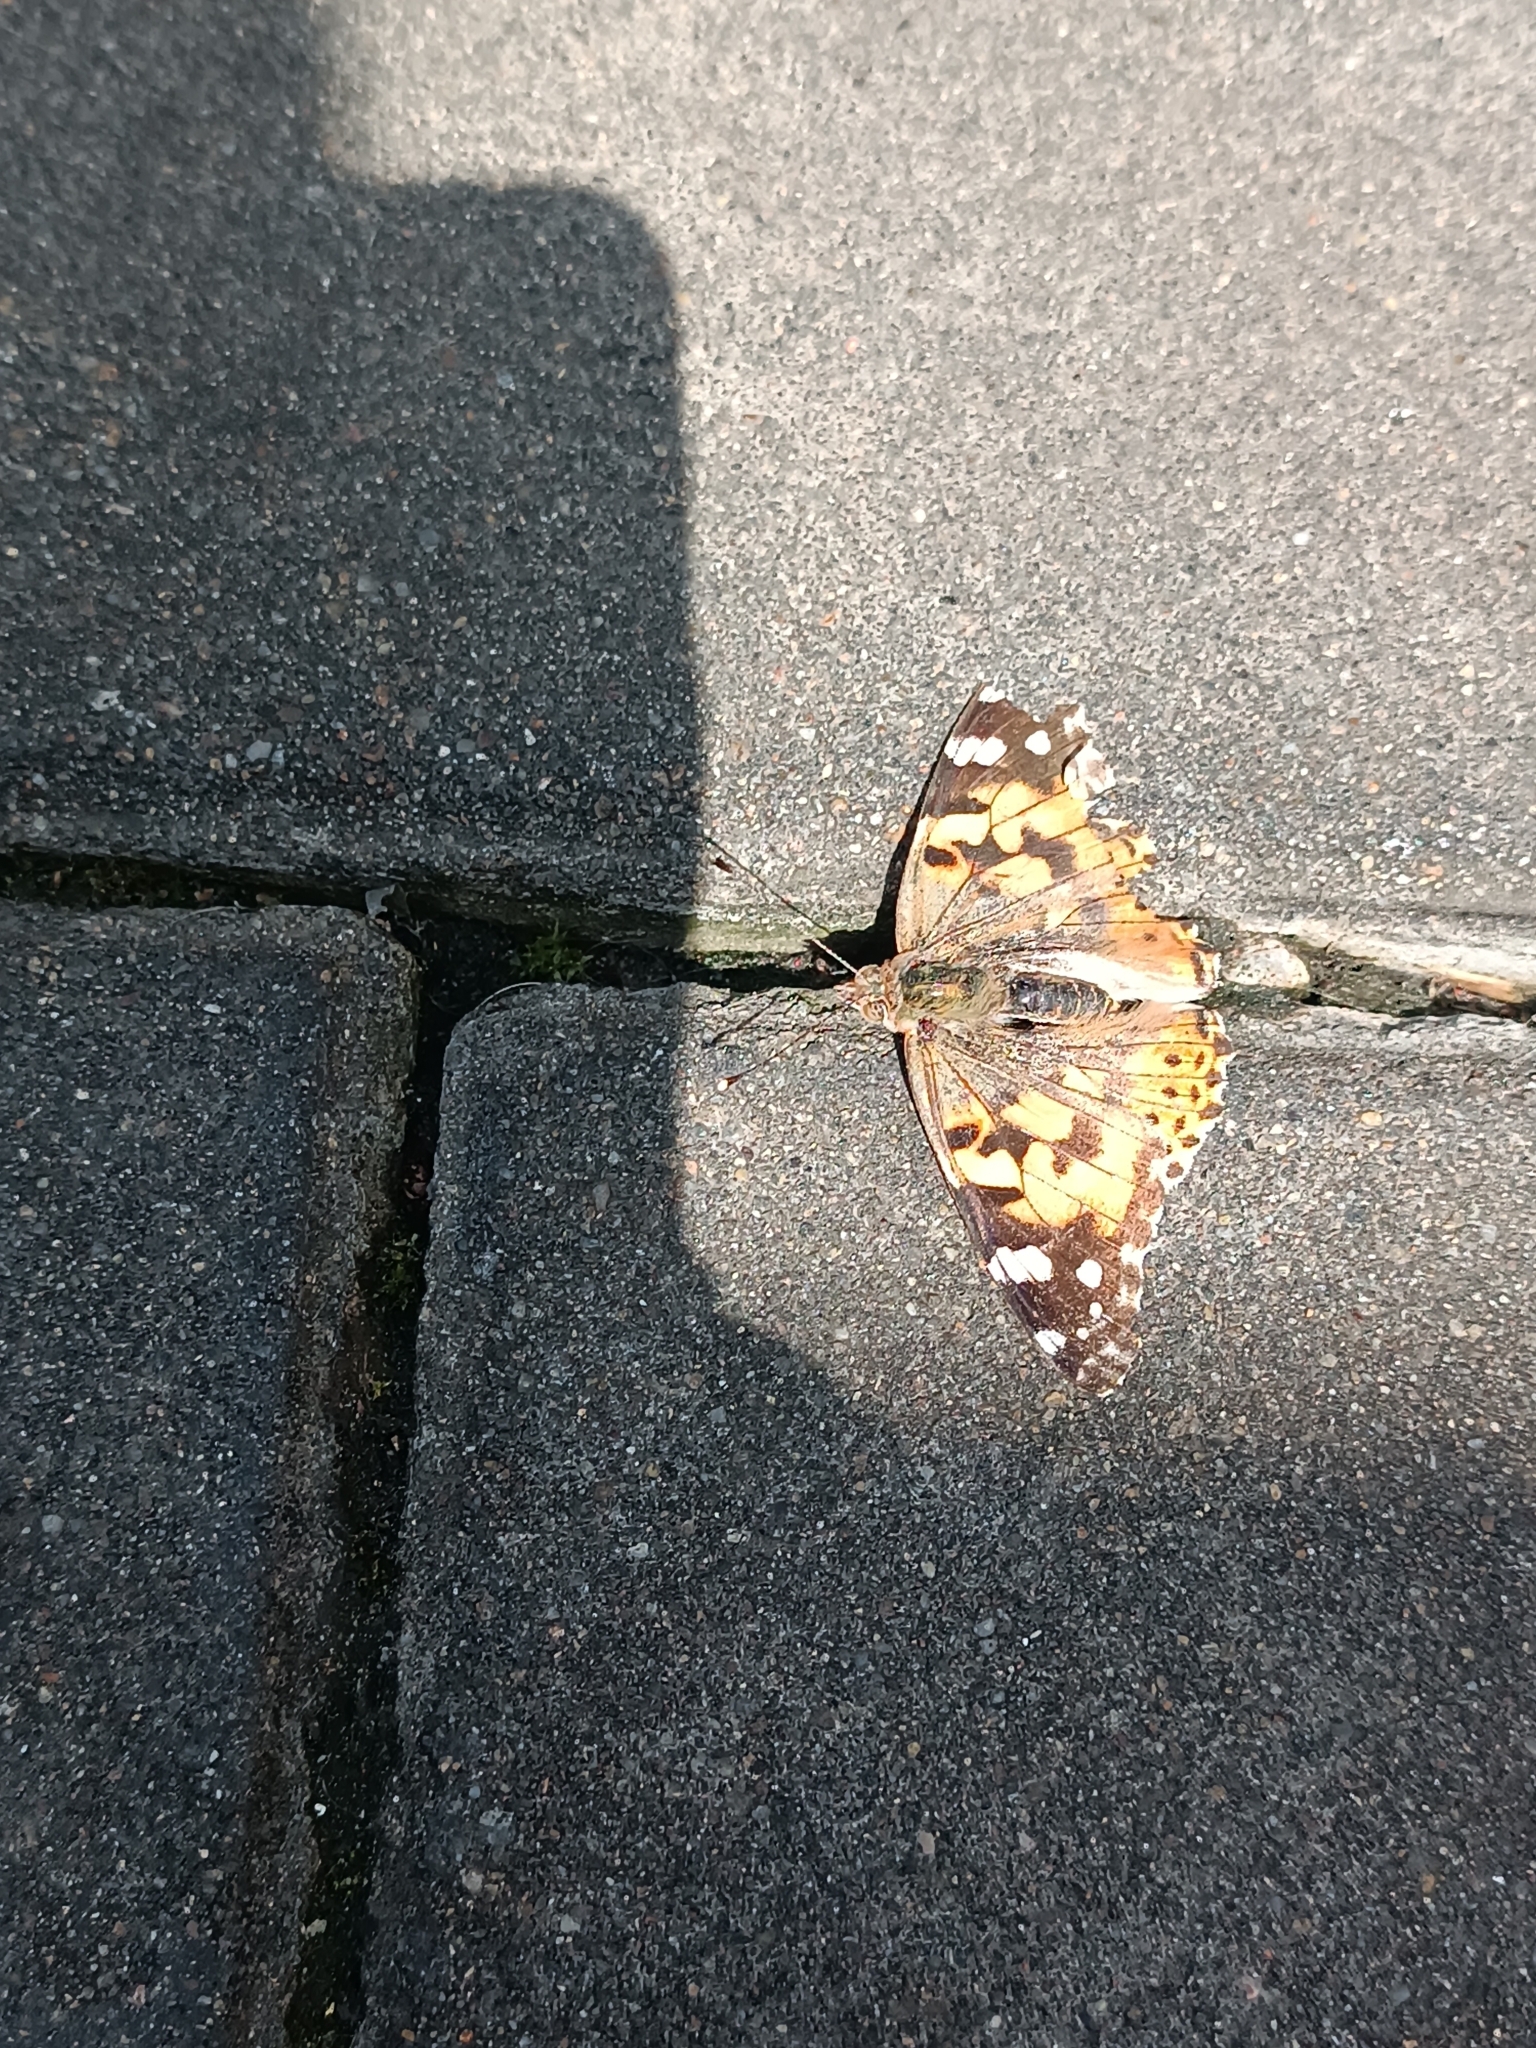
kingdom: Animalia
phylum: Arthropoda
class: Insecta
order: Lepidoptera
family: Nymphalidae
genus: Vanessa
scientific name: Vanessa cardui
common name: Painted lady
